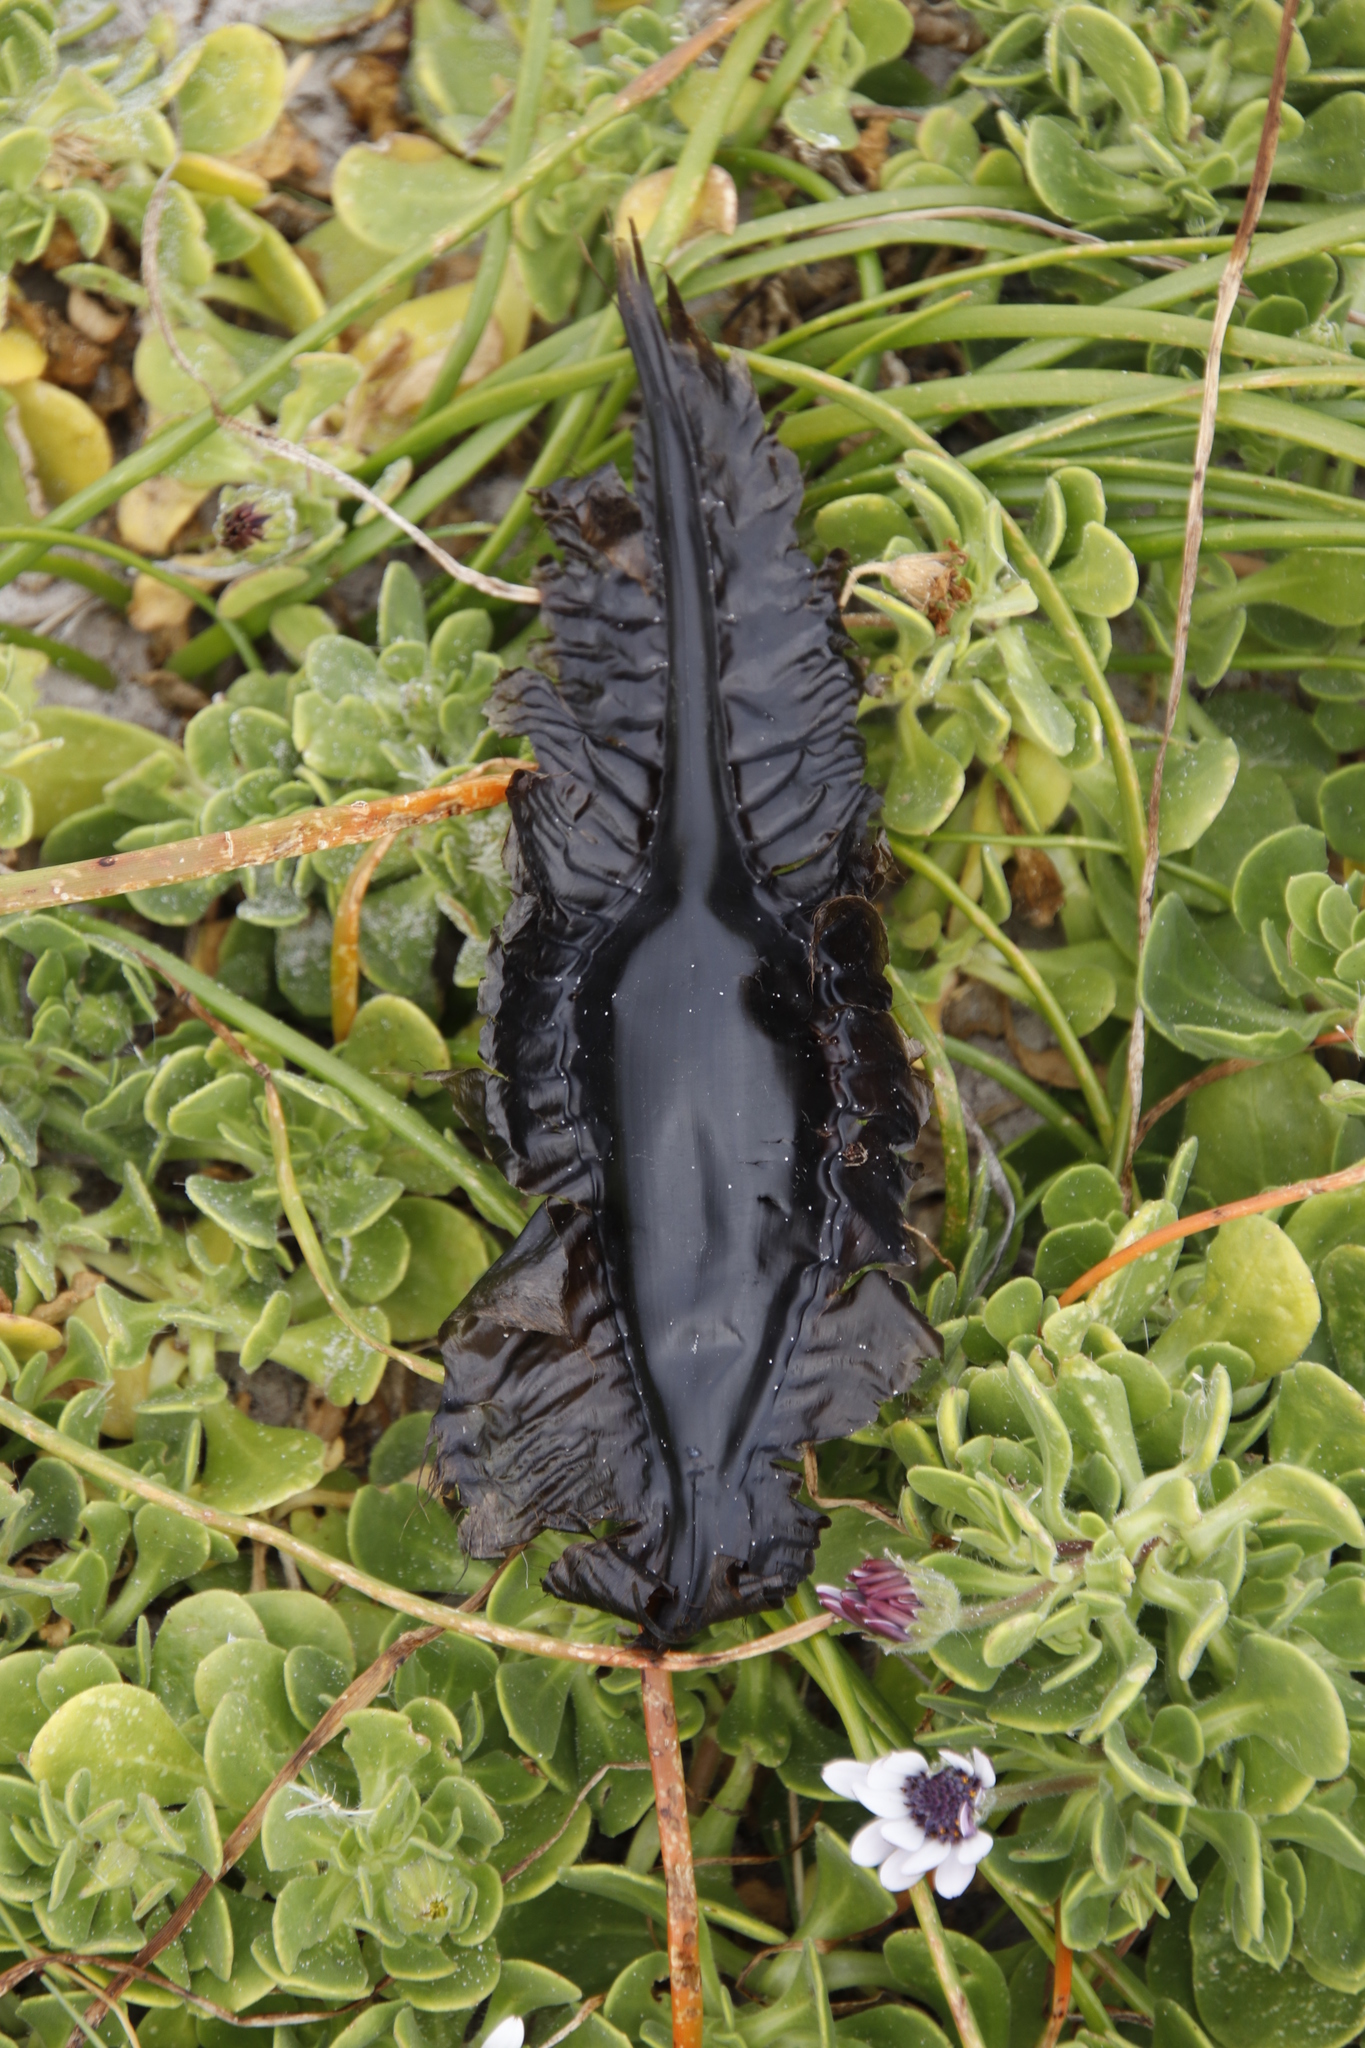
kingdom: Animalia
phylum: Chordata
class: Holocephali
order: Chimaeriformes
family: Callorhinchidae
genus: Callorhinchus
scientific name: Callorhinchus capensis
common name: Cape elephantfish
